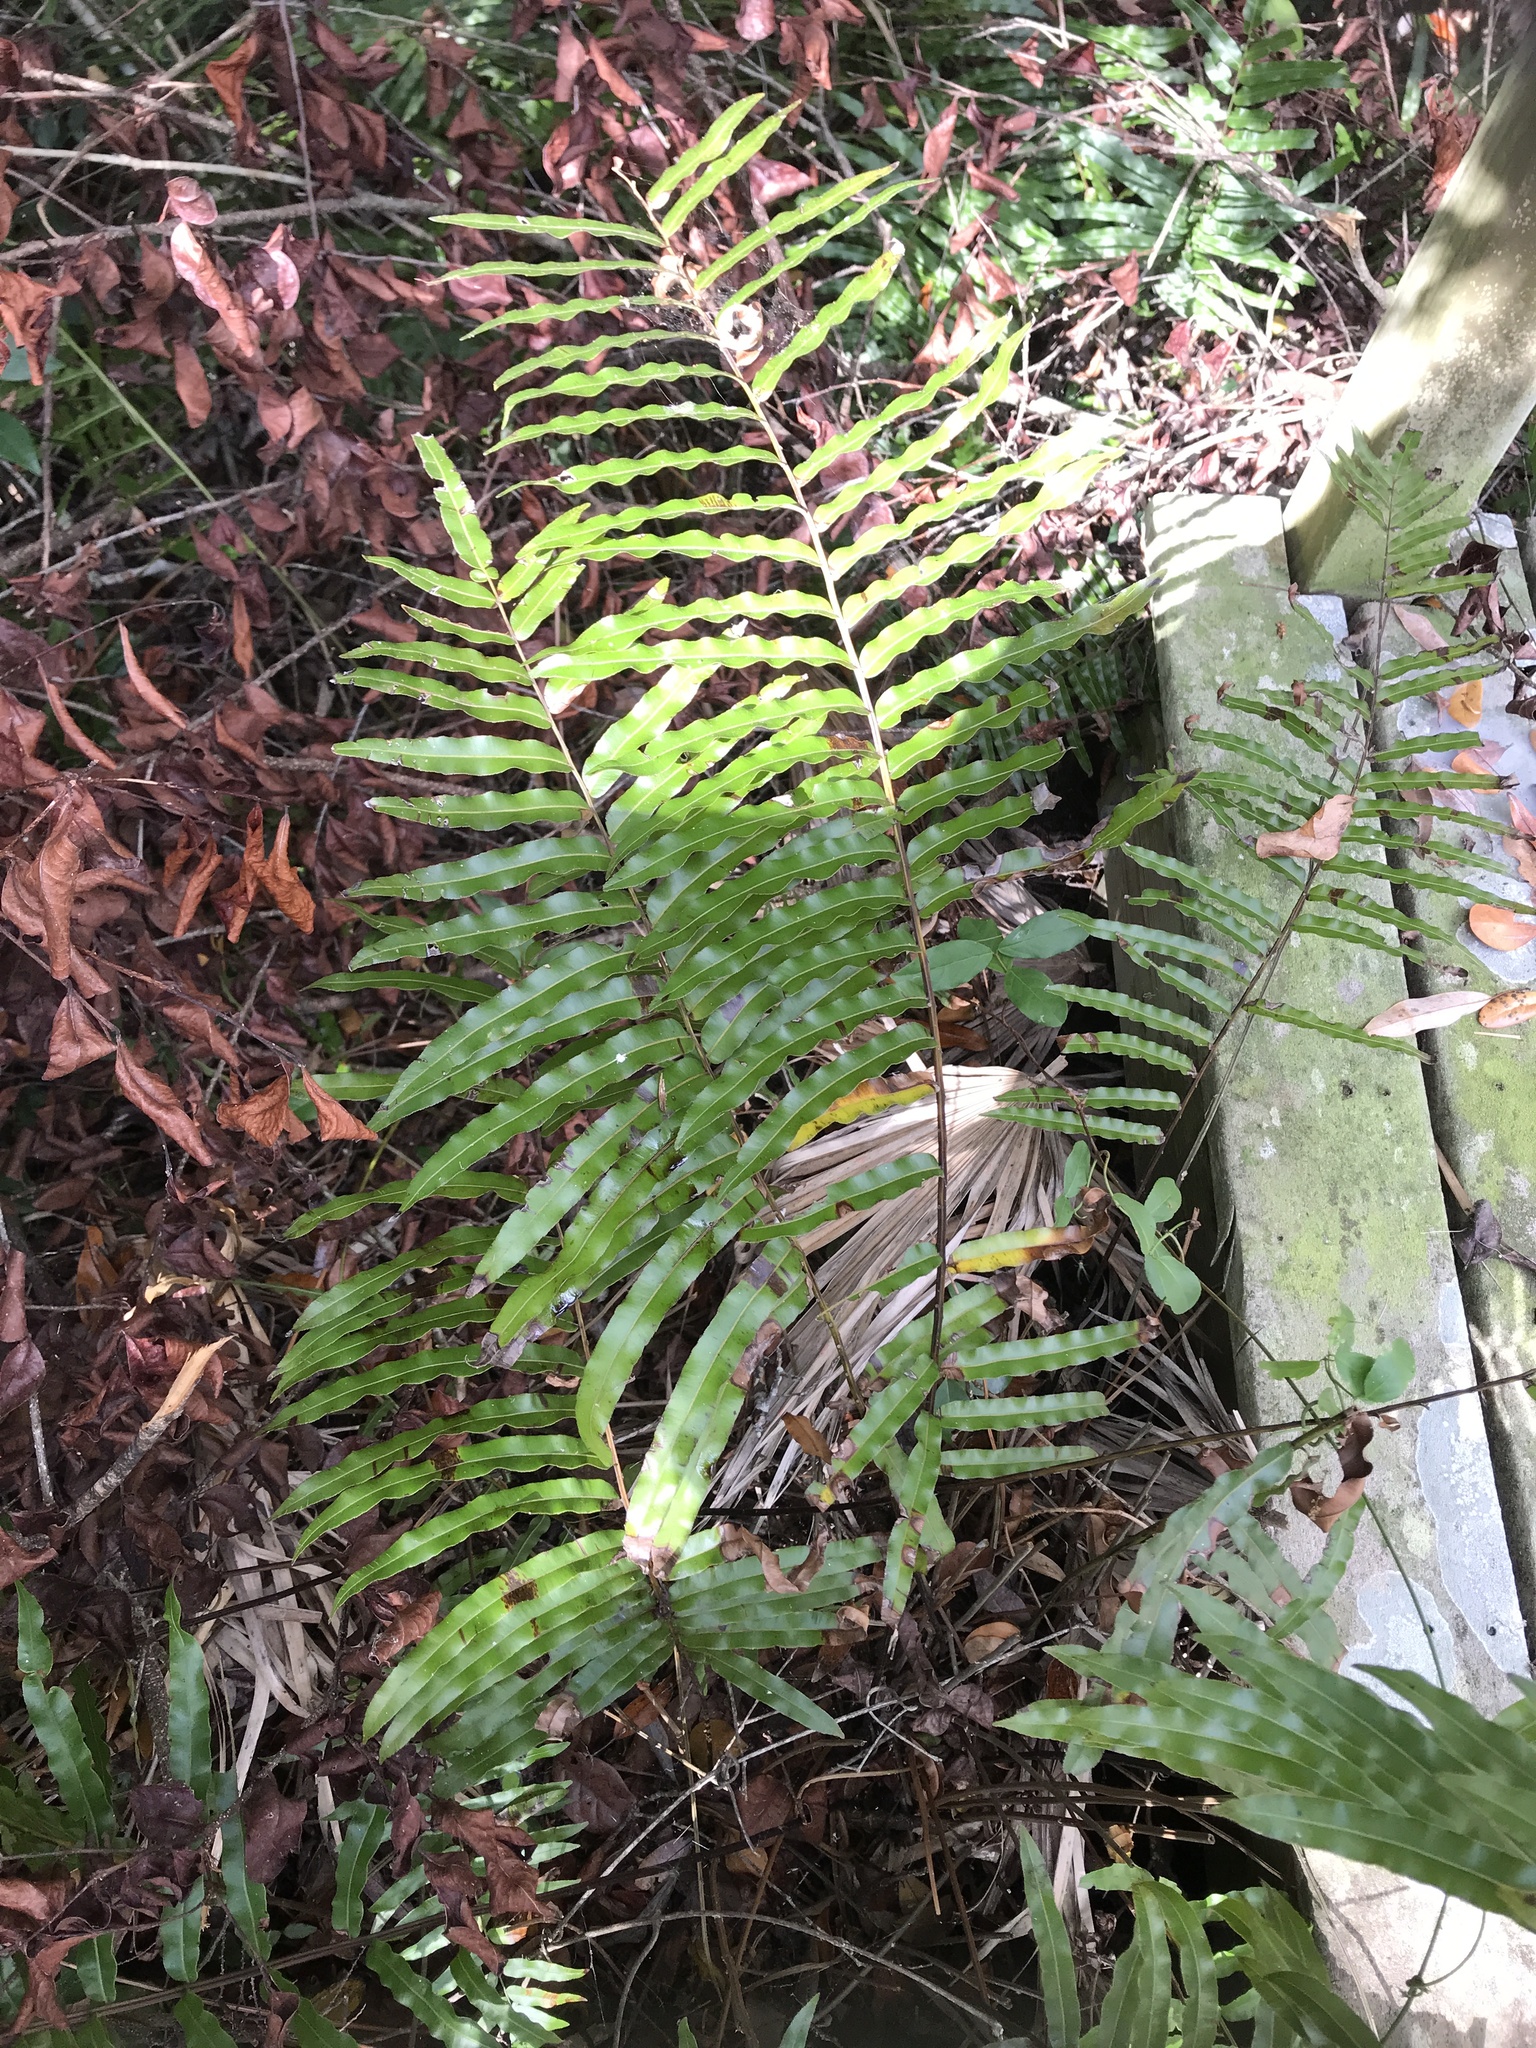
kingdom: Plantae
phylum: Tracheophyta
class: Polypodiopsida
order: Polypodiales
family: Blechnaceae
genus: Telmatoblechnum
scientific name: Telmatoblechnum serrulatum
